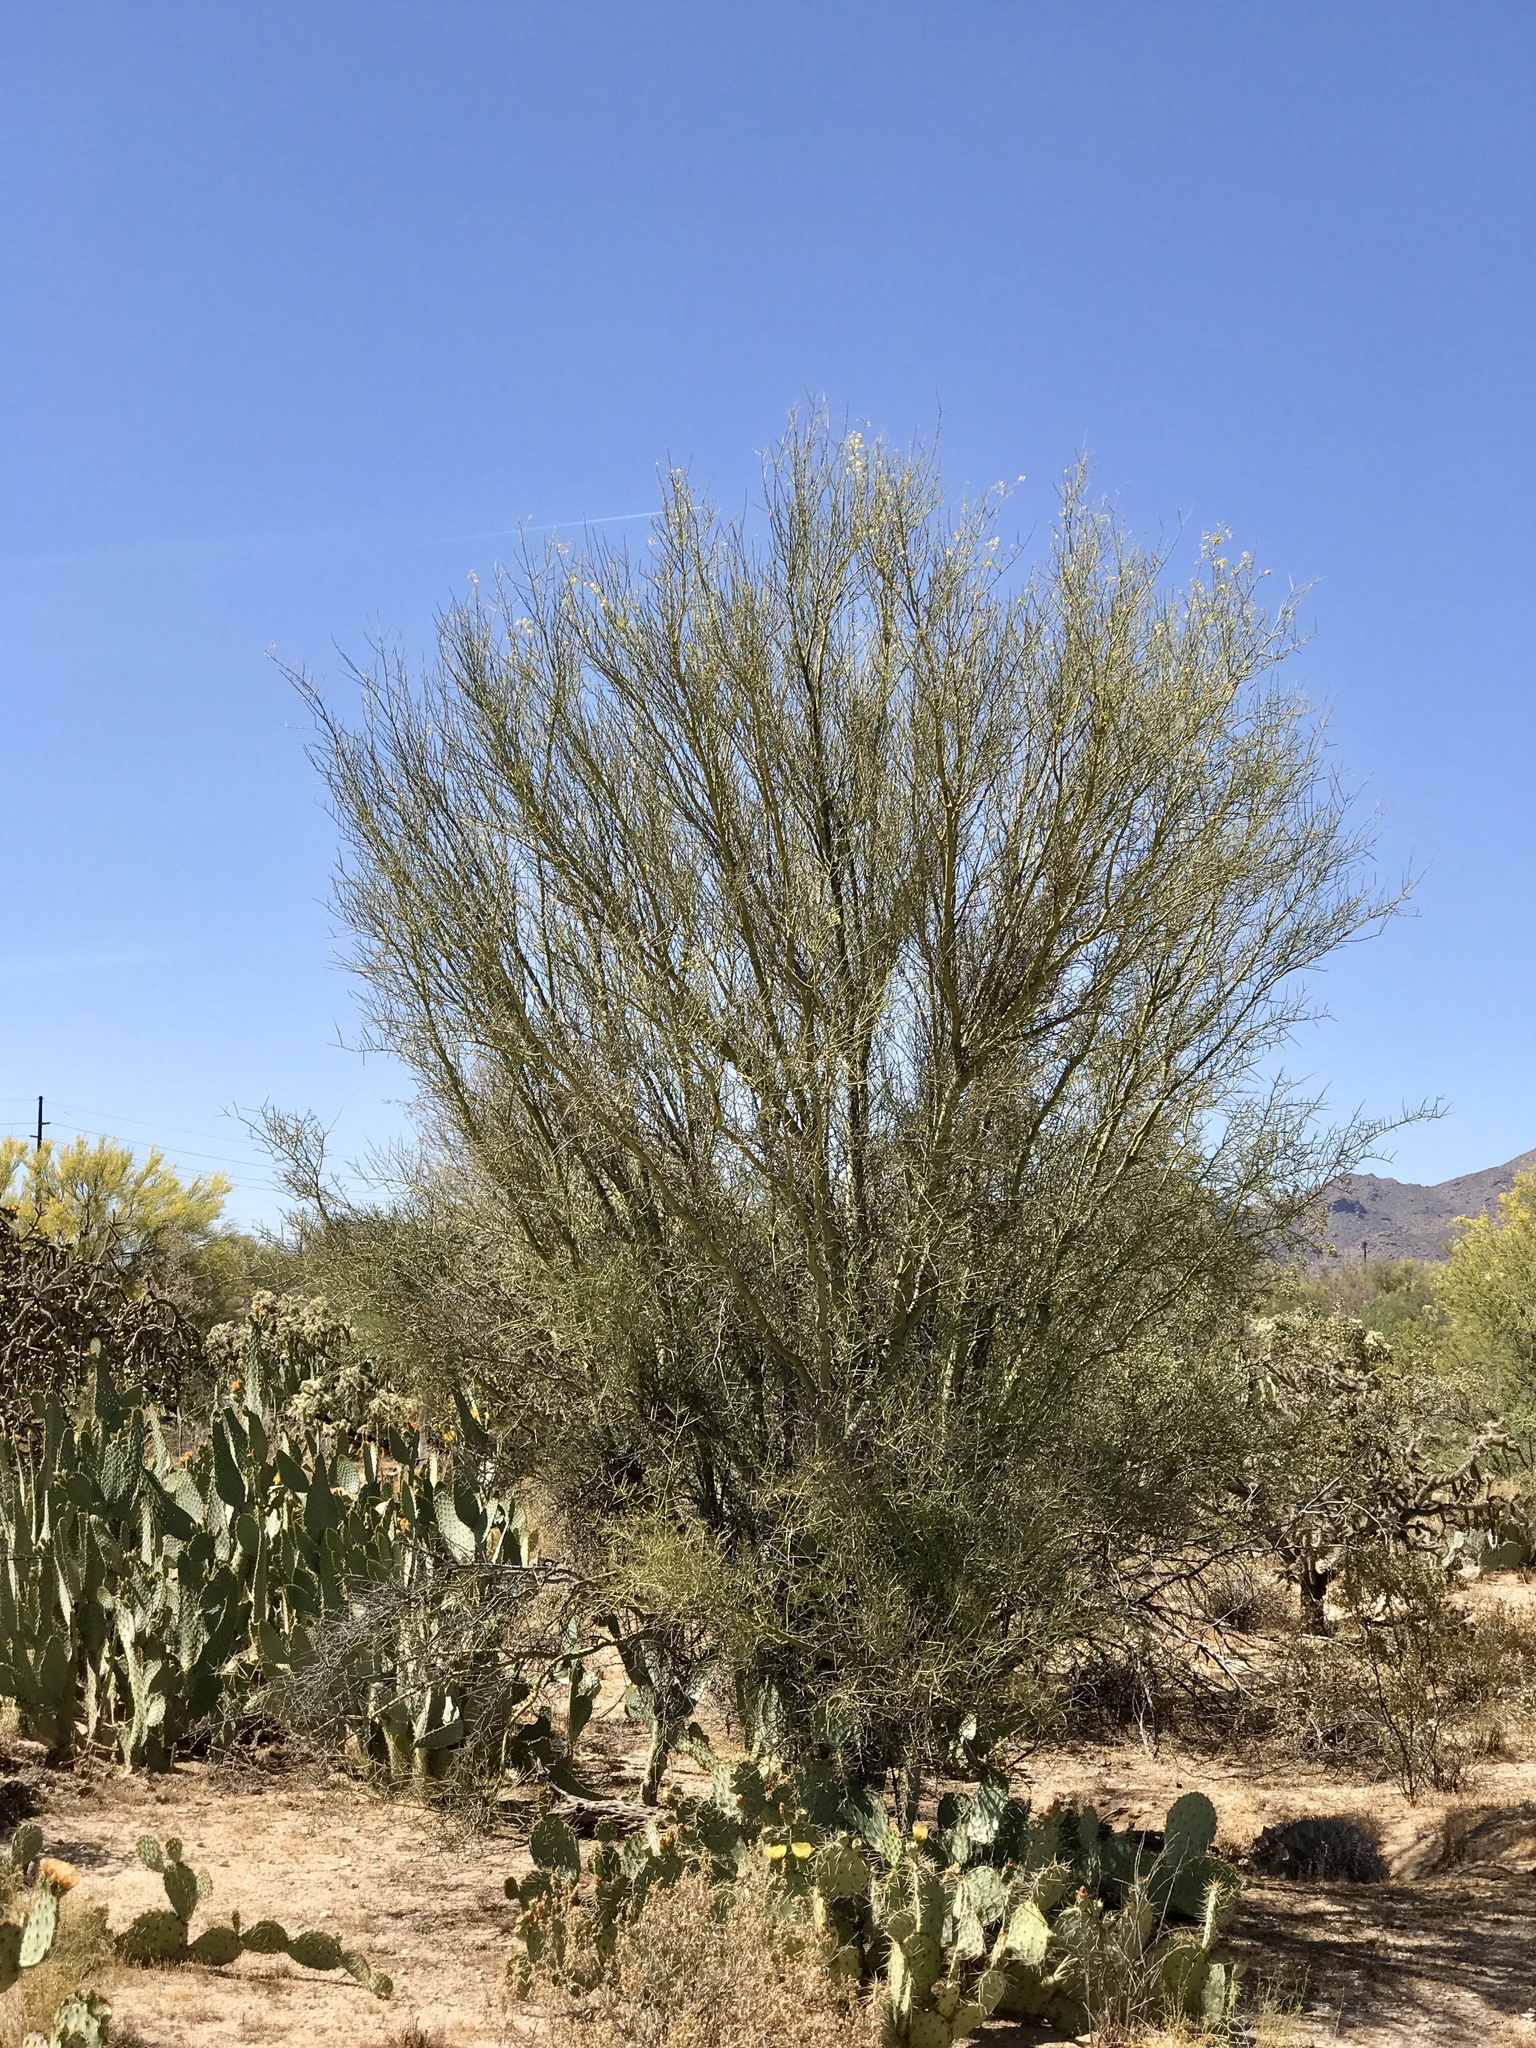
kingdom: Plantae
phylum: Tracheophyta
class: Magnoliopsida
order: Fabales
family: Fabaceae
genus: Parkinsonia
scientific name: Parkinsonia florida
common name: Blue paloverde
